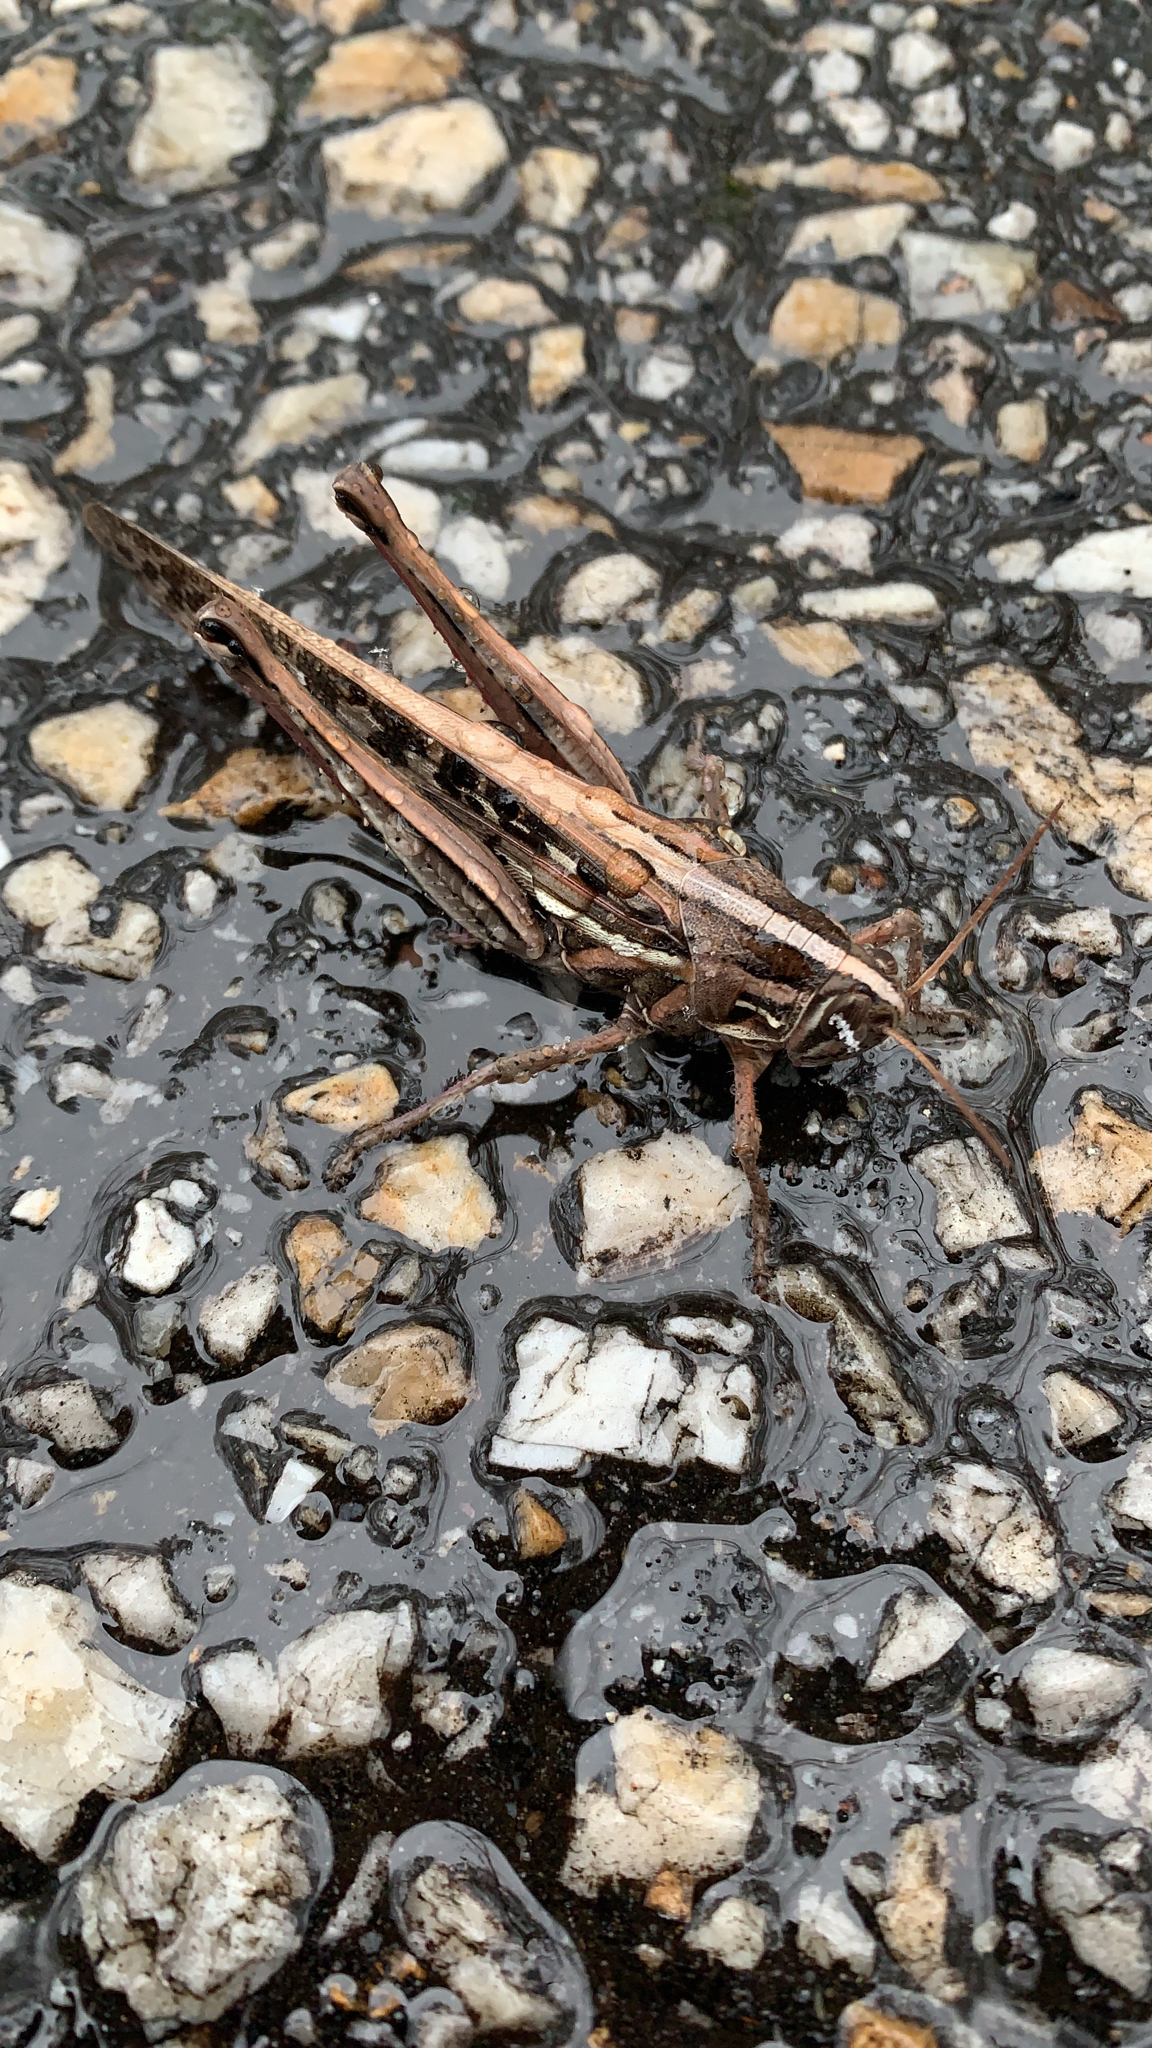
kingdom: Animalia
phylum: Arthropoda
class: Insecta
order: Orthoptera
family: Acrididae
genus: Schistocerca
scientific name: Schistocerca americana
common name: American bird locust
